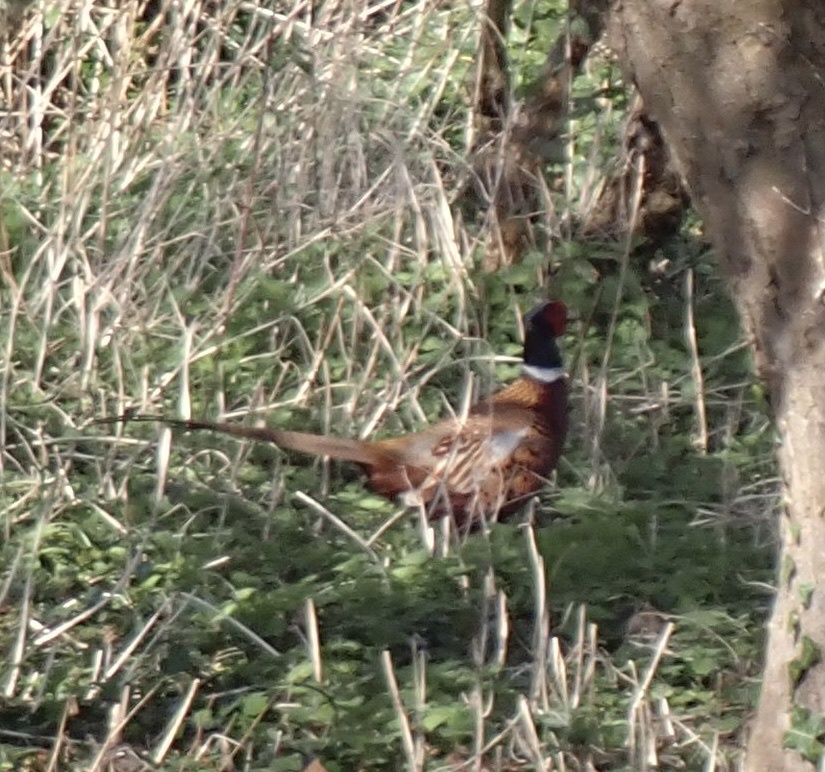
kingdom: Animalia
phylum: Chordata
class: Aves
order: Galliformes
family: Phasianidae
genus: Phasianus
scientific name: Phasianus colchicus
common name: Common pheasant
